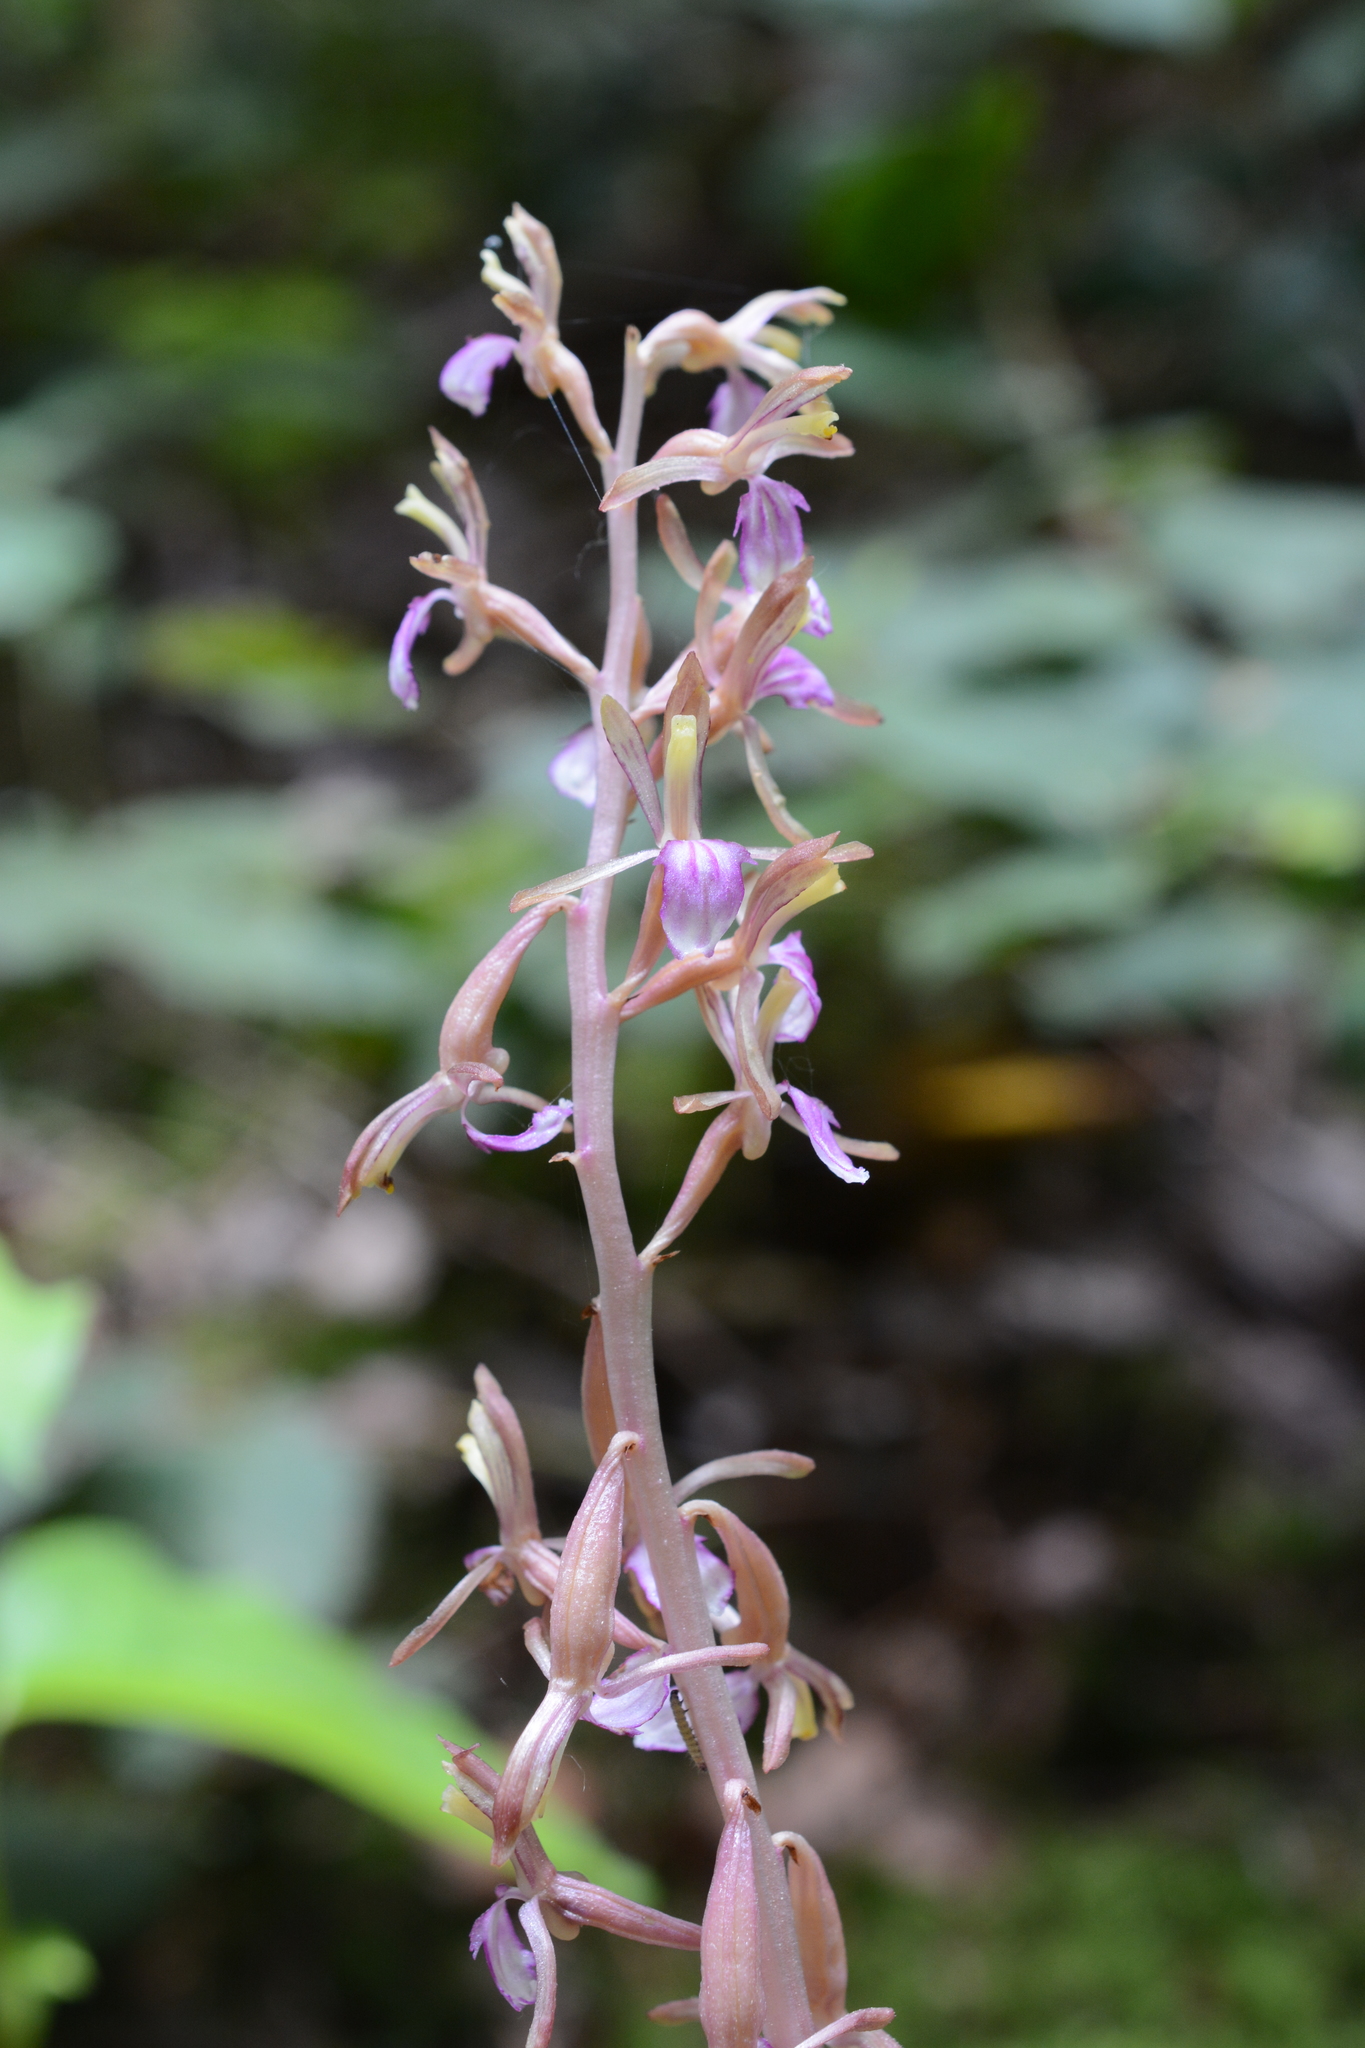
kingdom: Plantae
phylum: Tracheophyta
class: Liliopsida
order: Asparagales
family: Orchidaceae
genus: Corallorhiza
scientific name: Corallorhiza mertensiana
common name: Pacific coralroot
